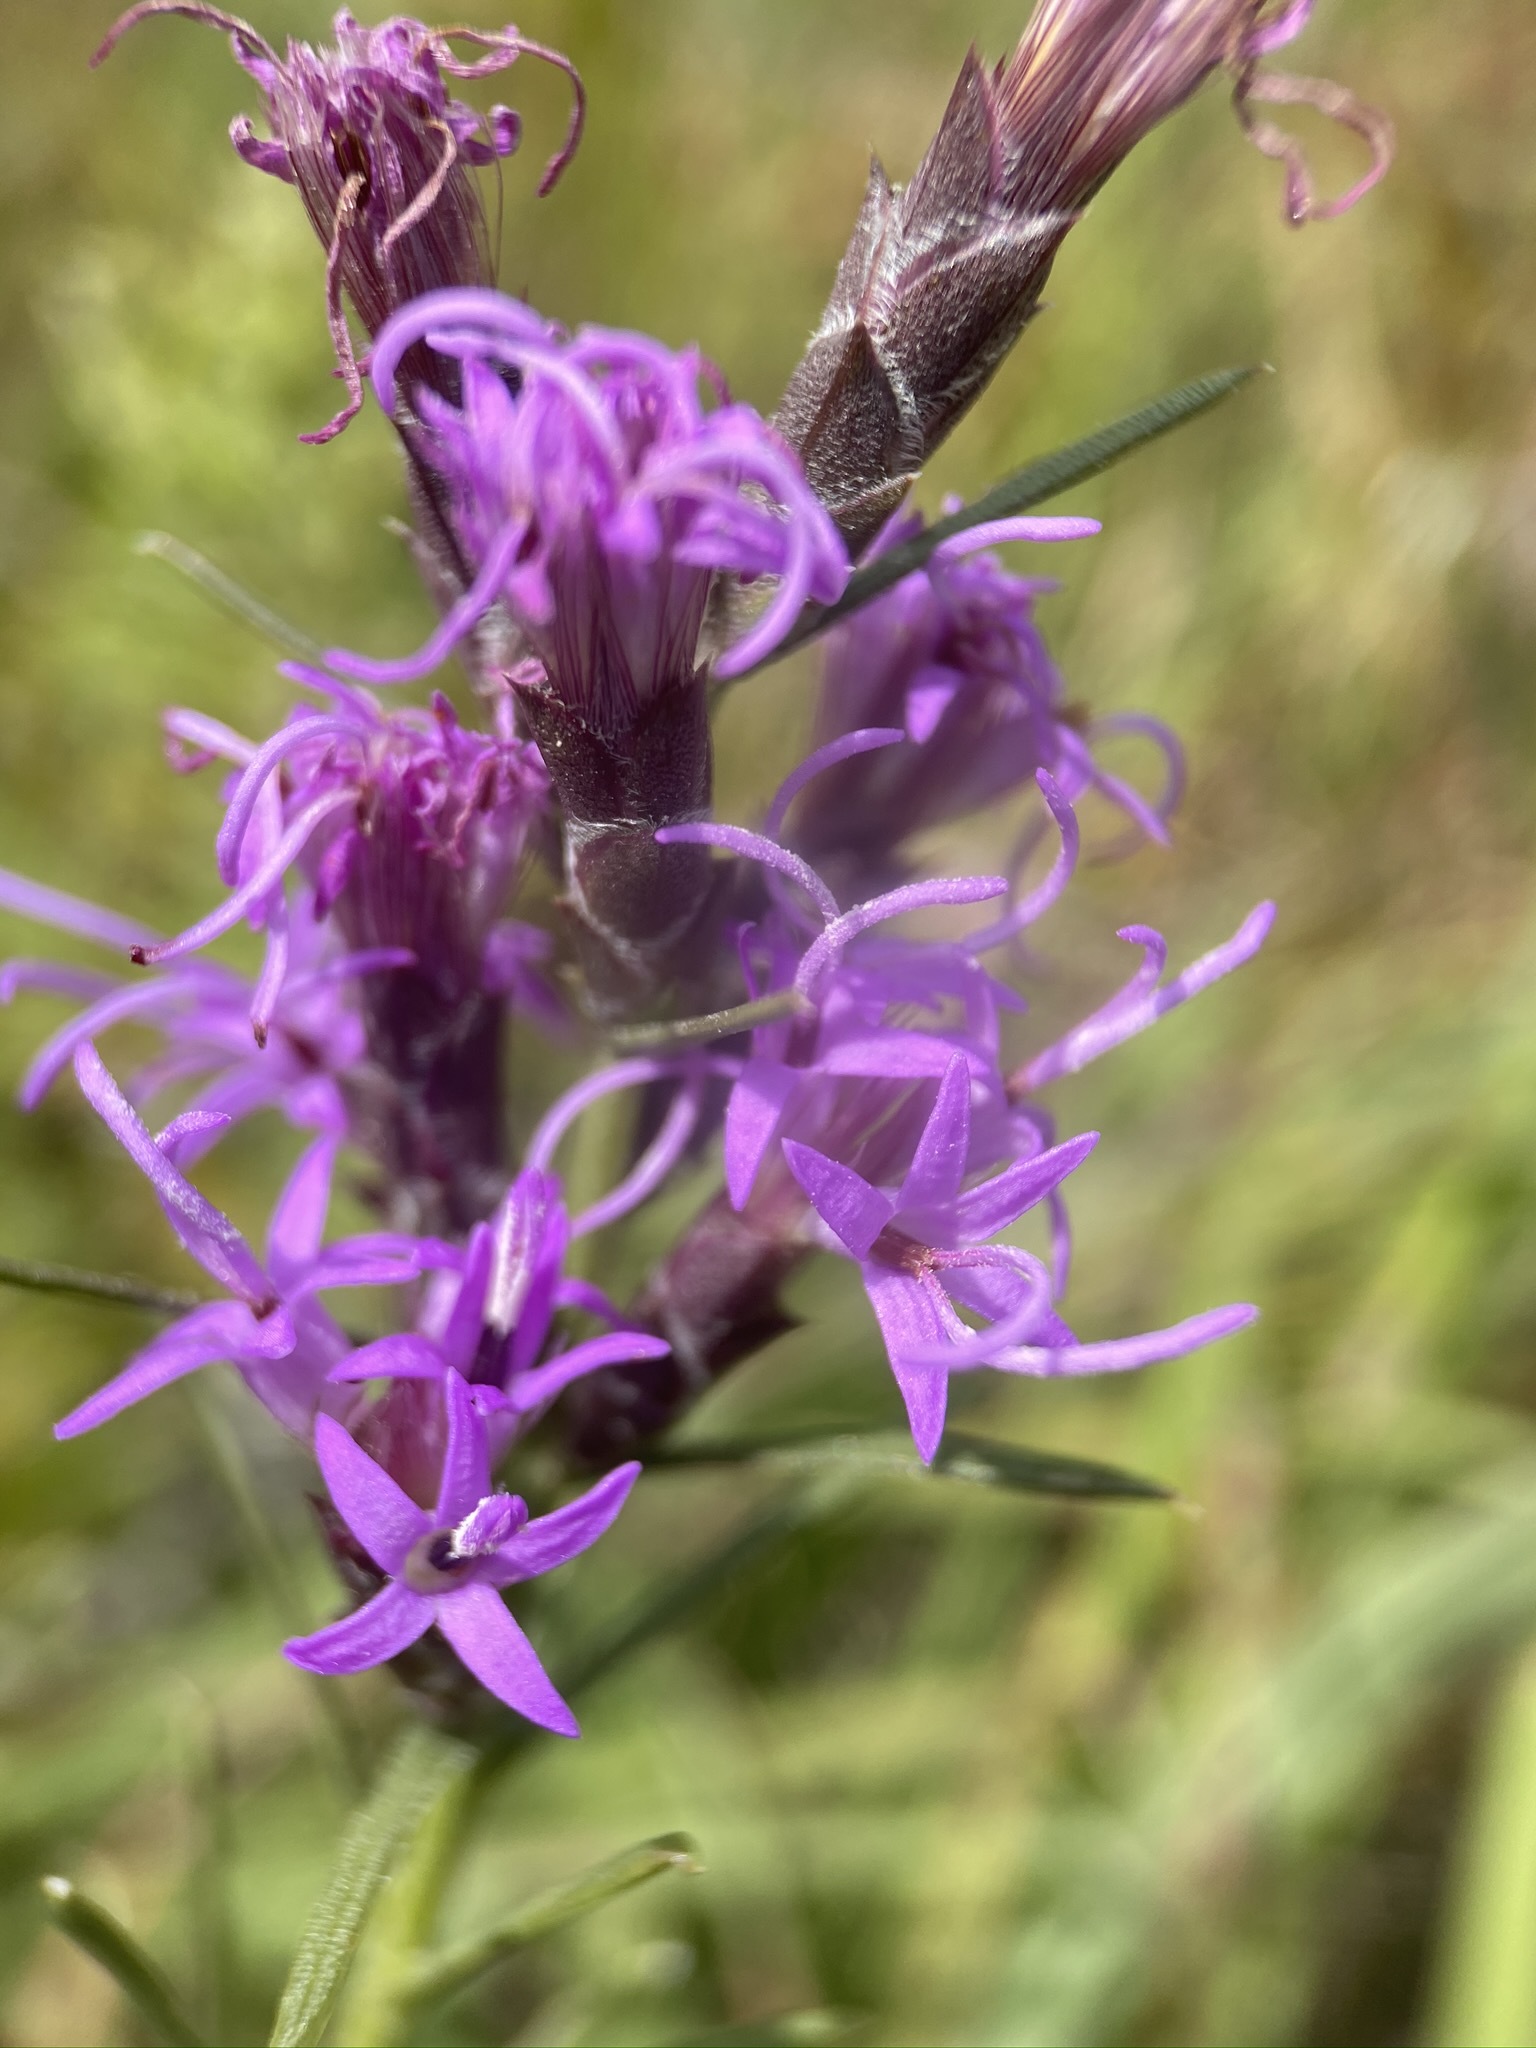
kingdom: Plantae
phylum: Tracheophyta
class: Magnoliopsida
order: Asterales
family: Asteraceae
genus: Liatris
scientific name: Liatris punctata
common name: Dotted gayfeather
